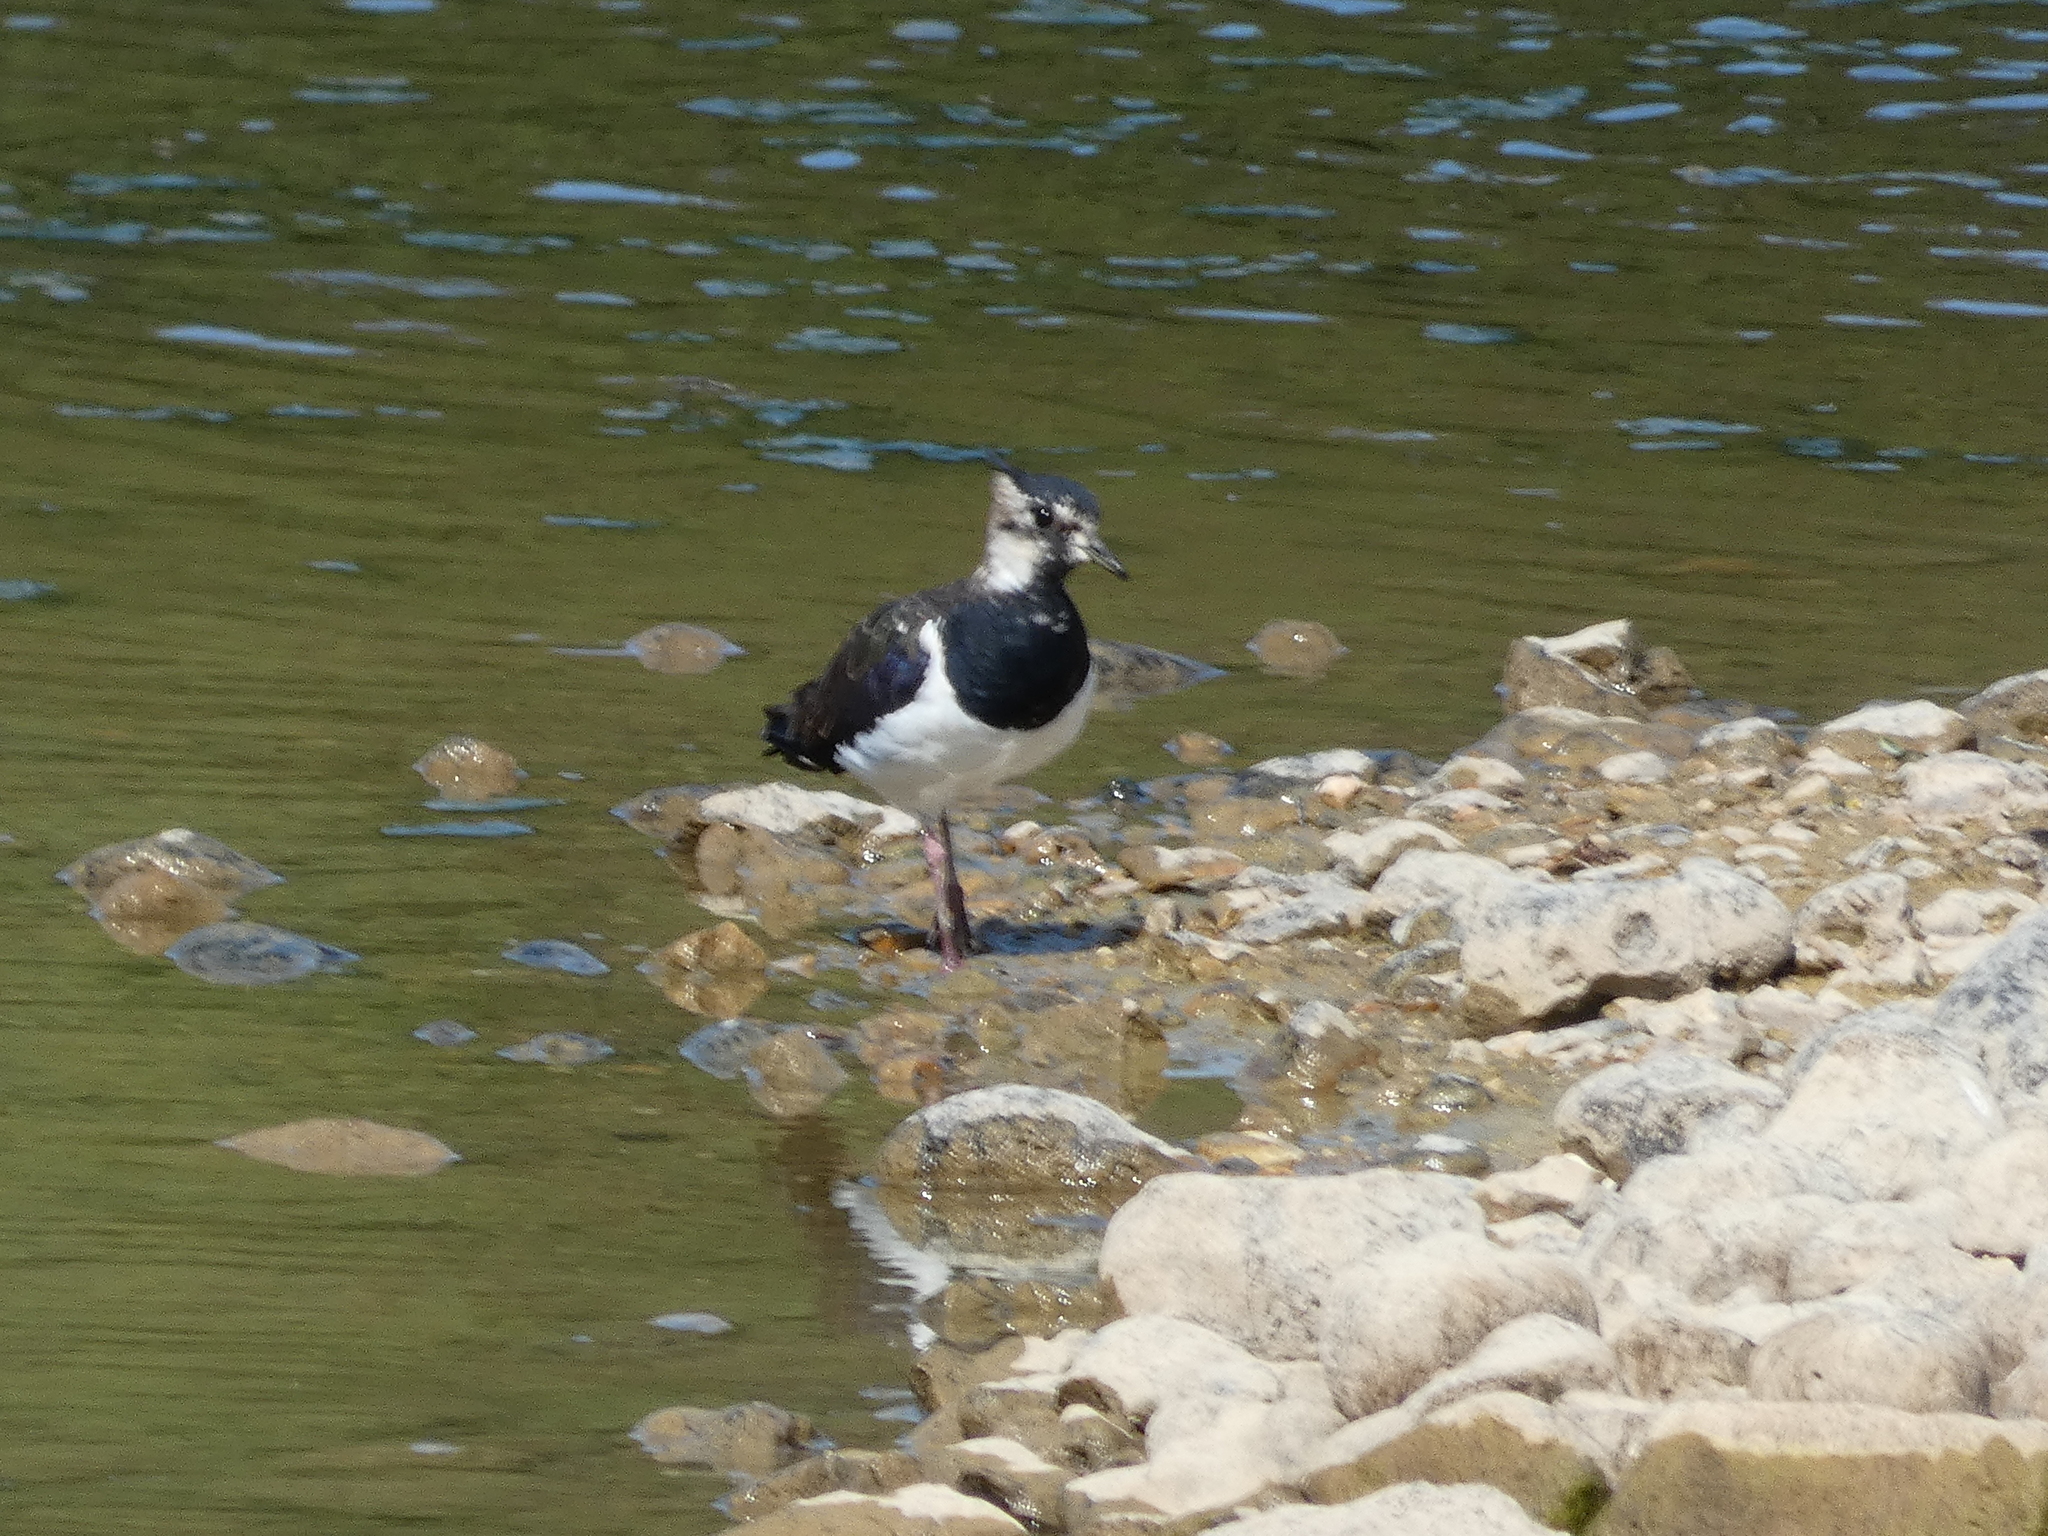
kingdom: Animalia
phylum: Chordata
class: Aves
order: Charadriiformes
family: Charadriidae
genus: Vanellus
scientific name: Vanellus vanellus
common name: Northern lapwing
